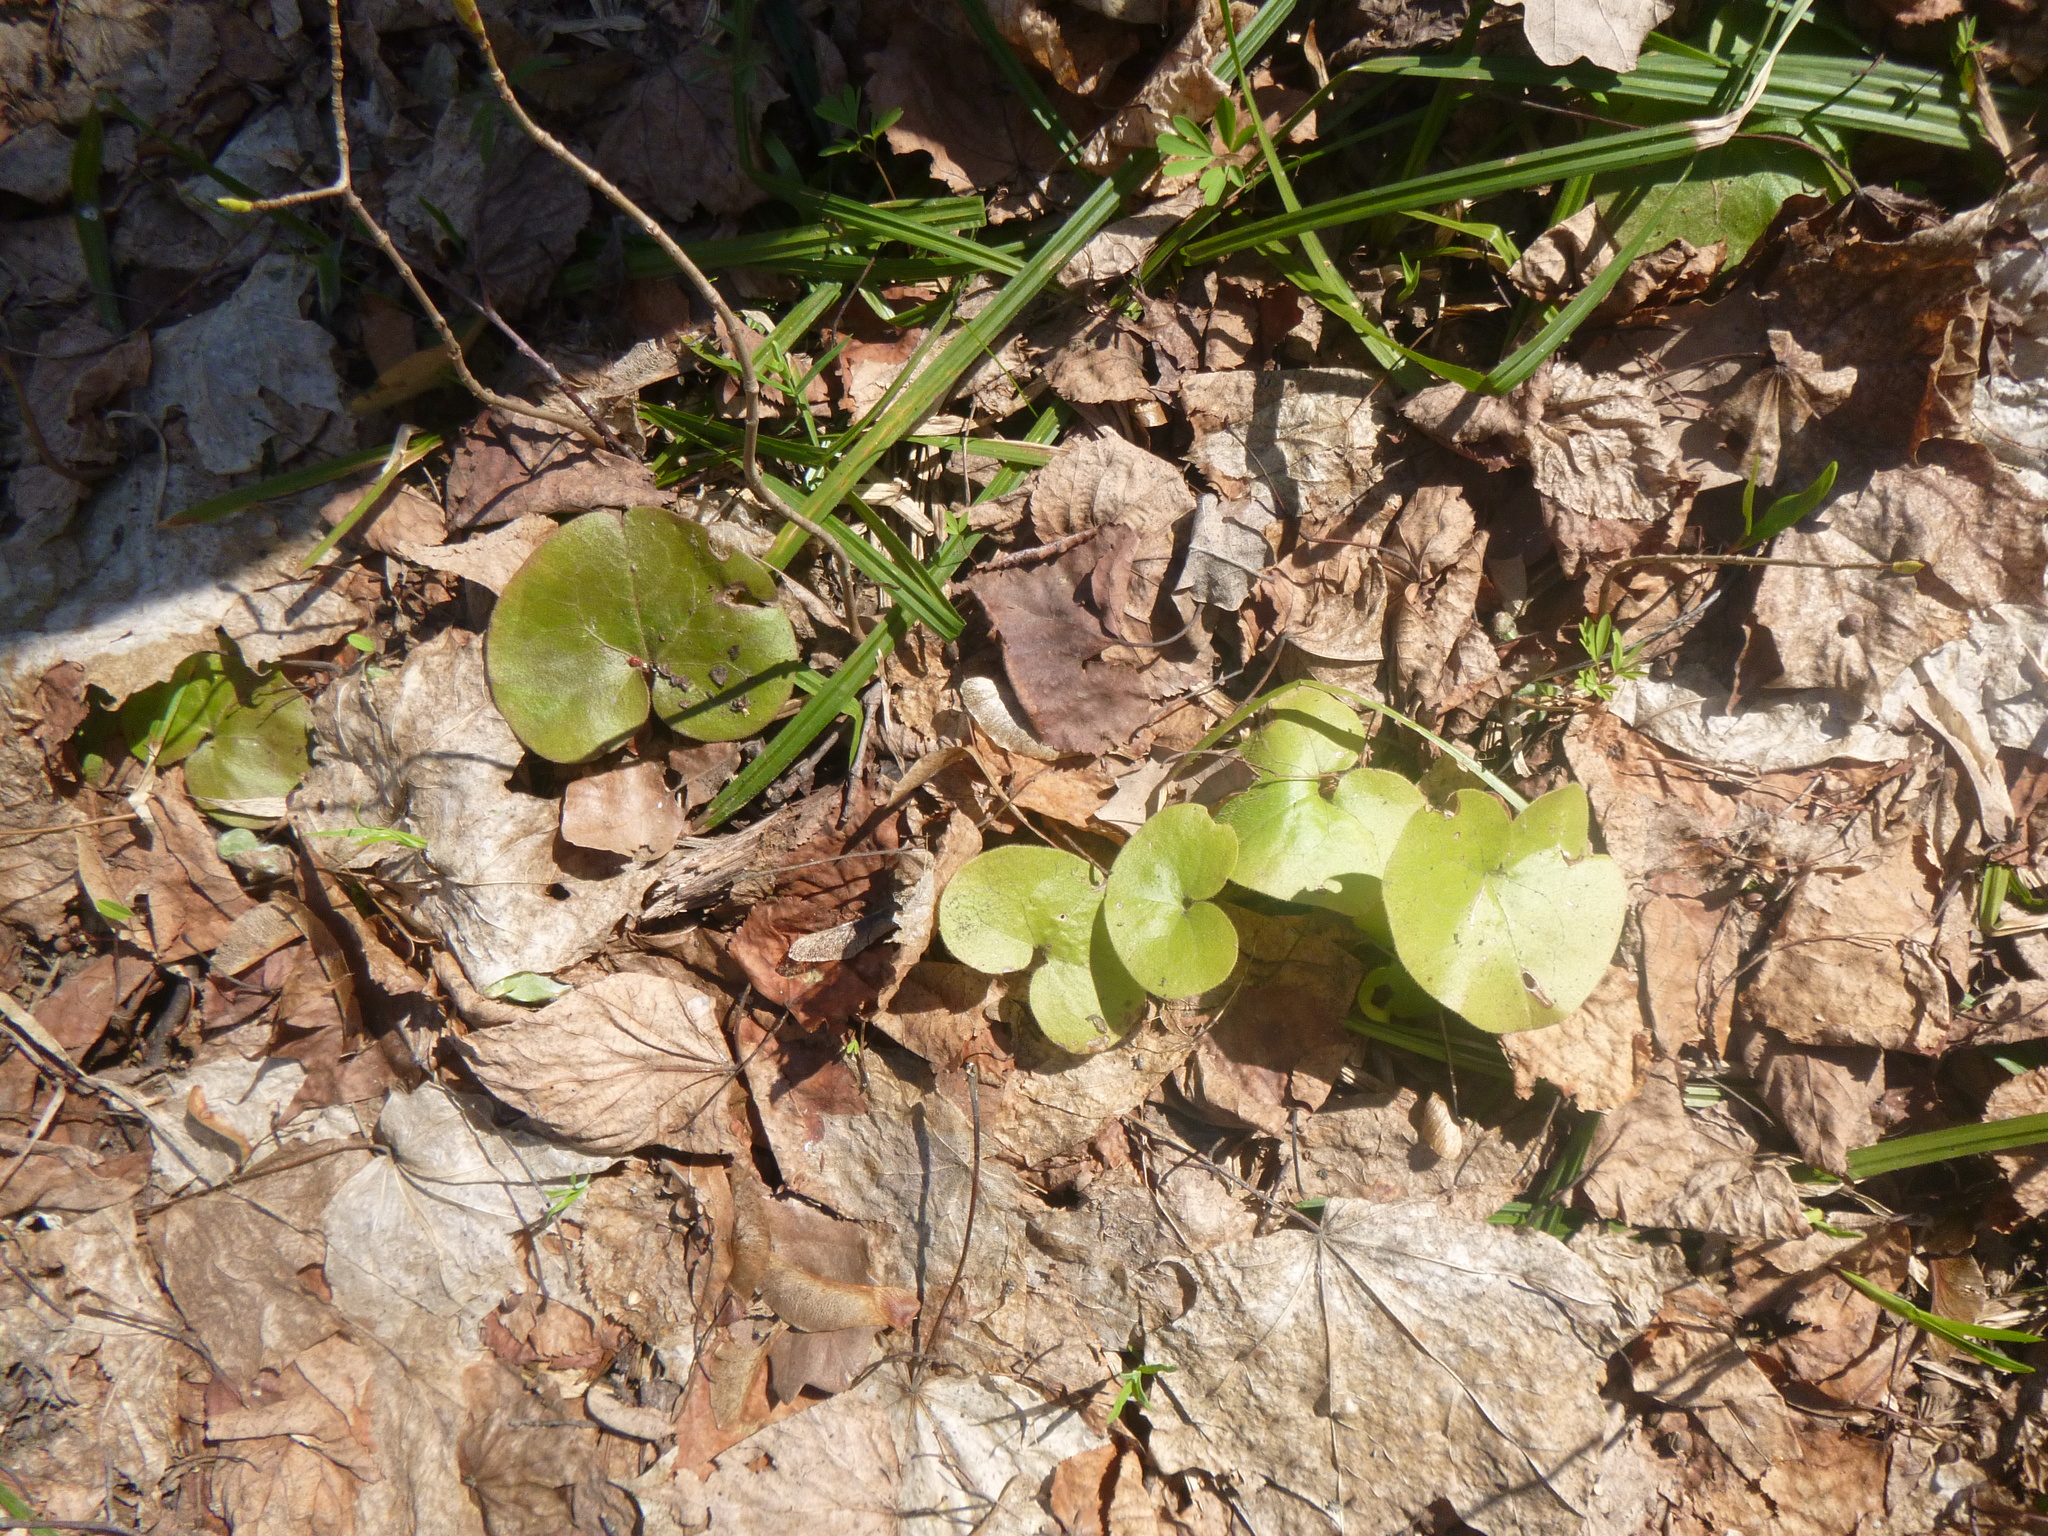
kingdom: Plantae
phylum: Tracheophyta
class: Magnoliopsida
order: Piperales
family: Aristolochiaceae
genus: Asarum
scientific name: Asarum europaeum
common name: Asarabacca
